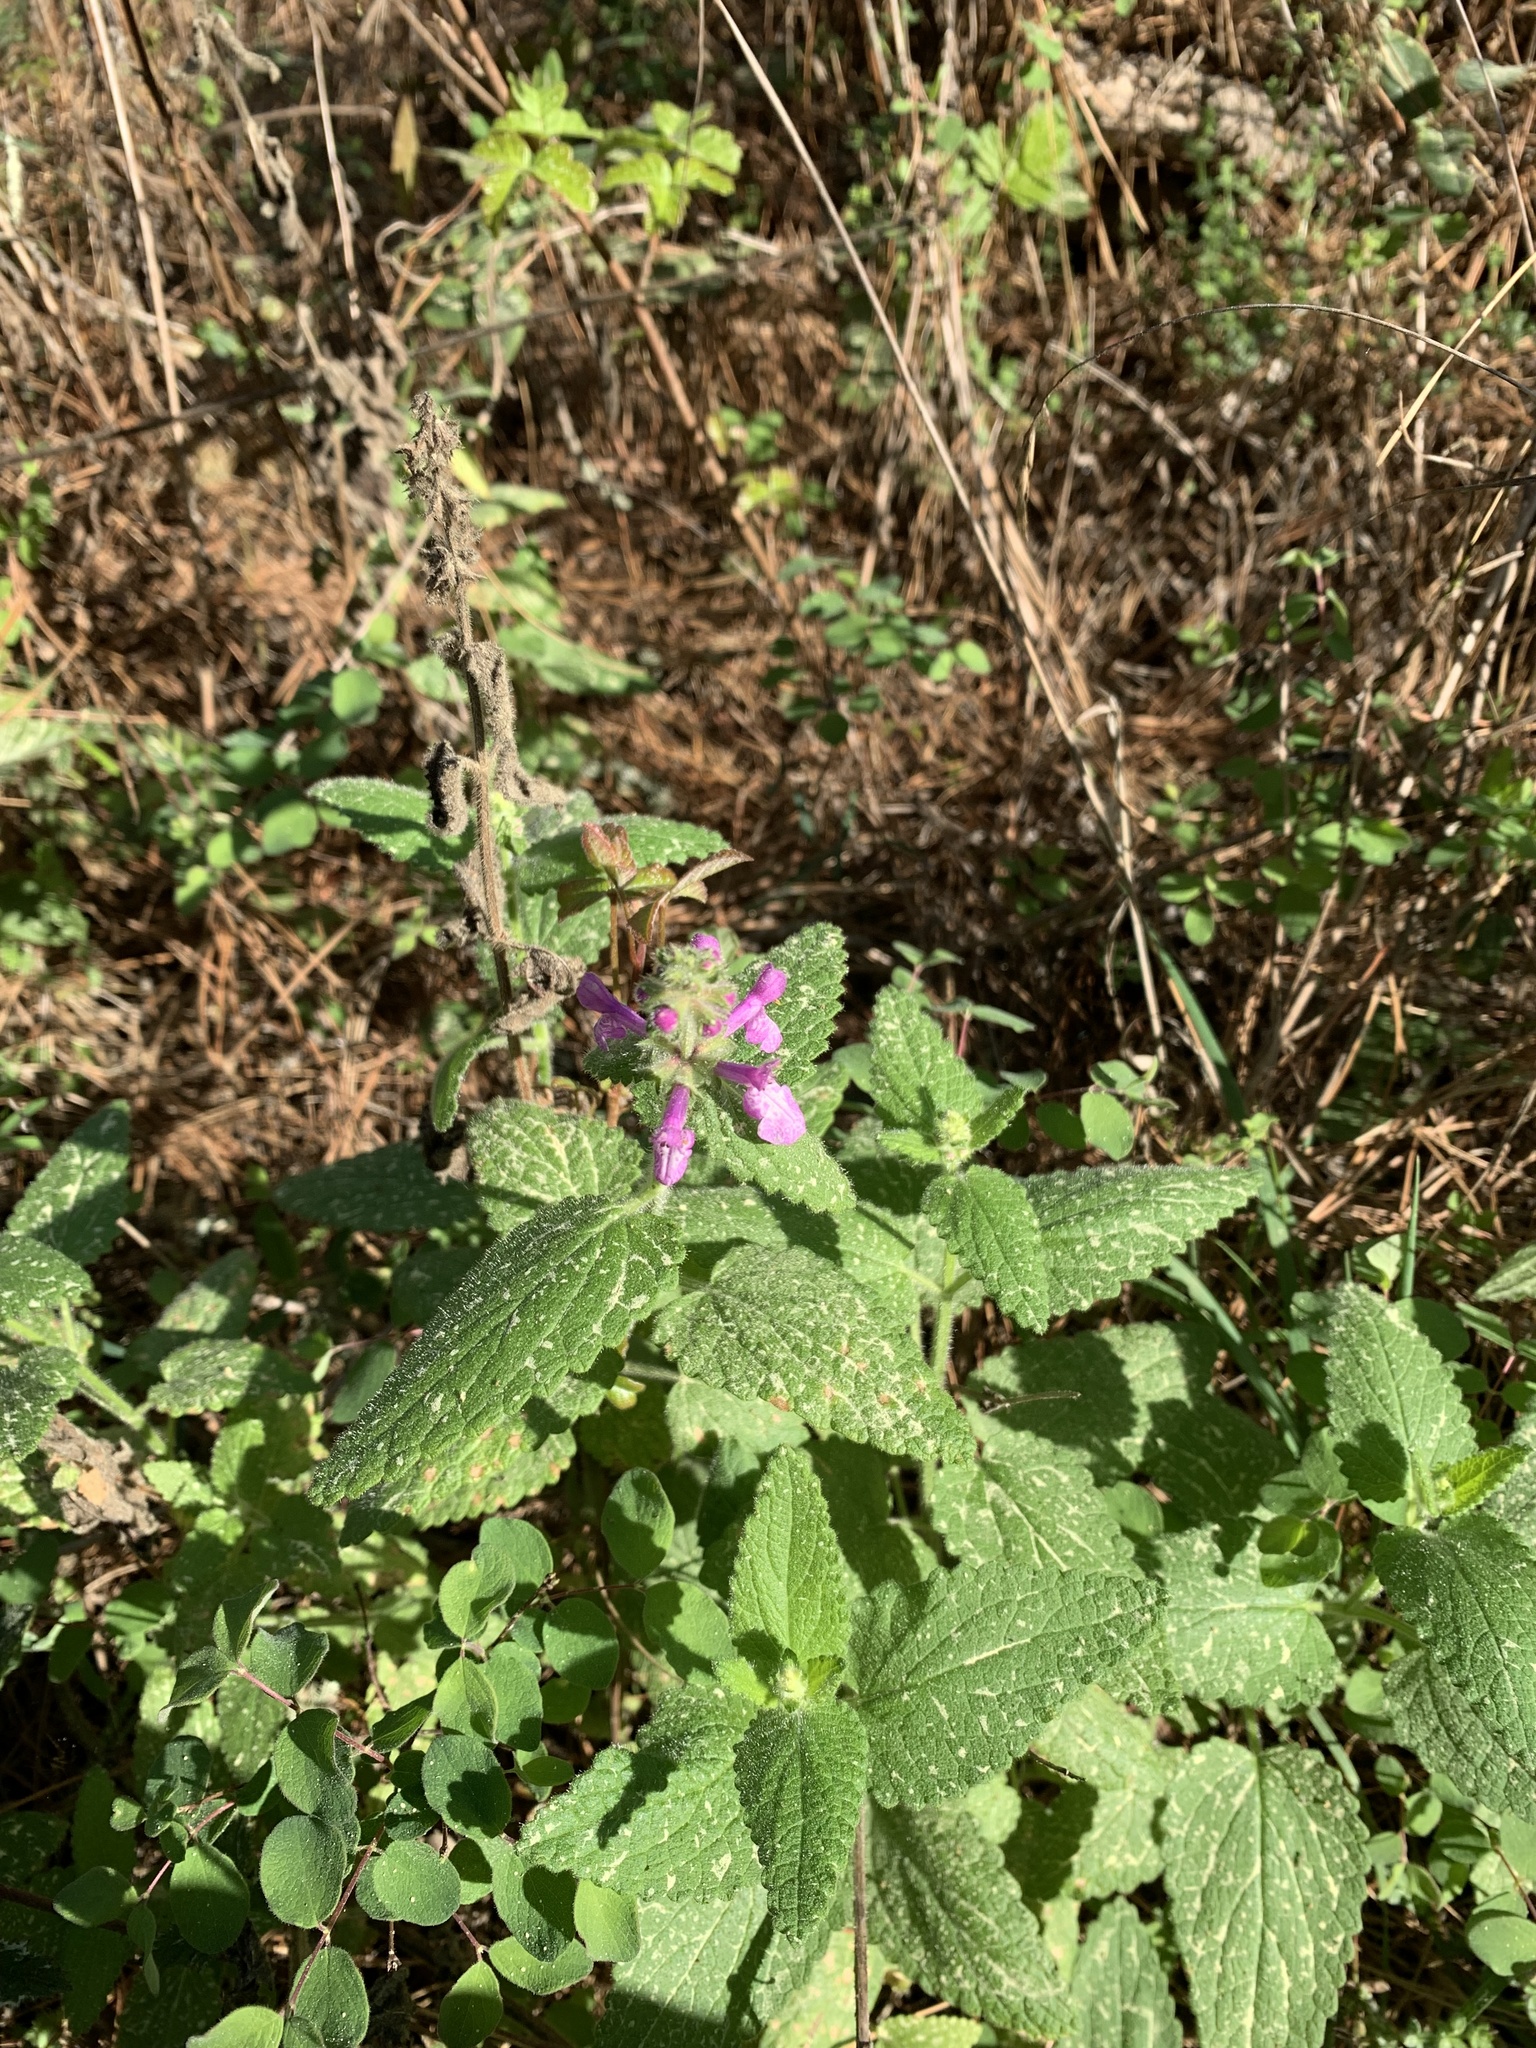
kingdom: Plantae
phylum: Tracheophyta
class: Magnoliopsida
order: Lamiales
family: Lamiaceae
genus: Stachys
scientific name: Stachys bullata
